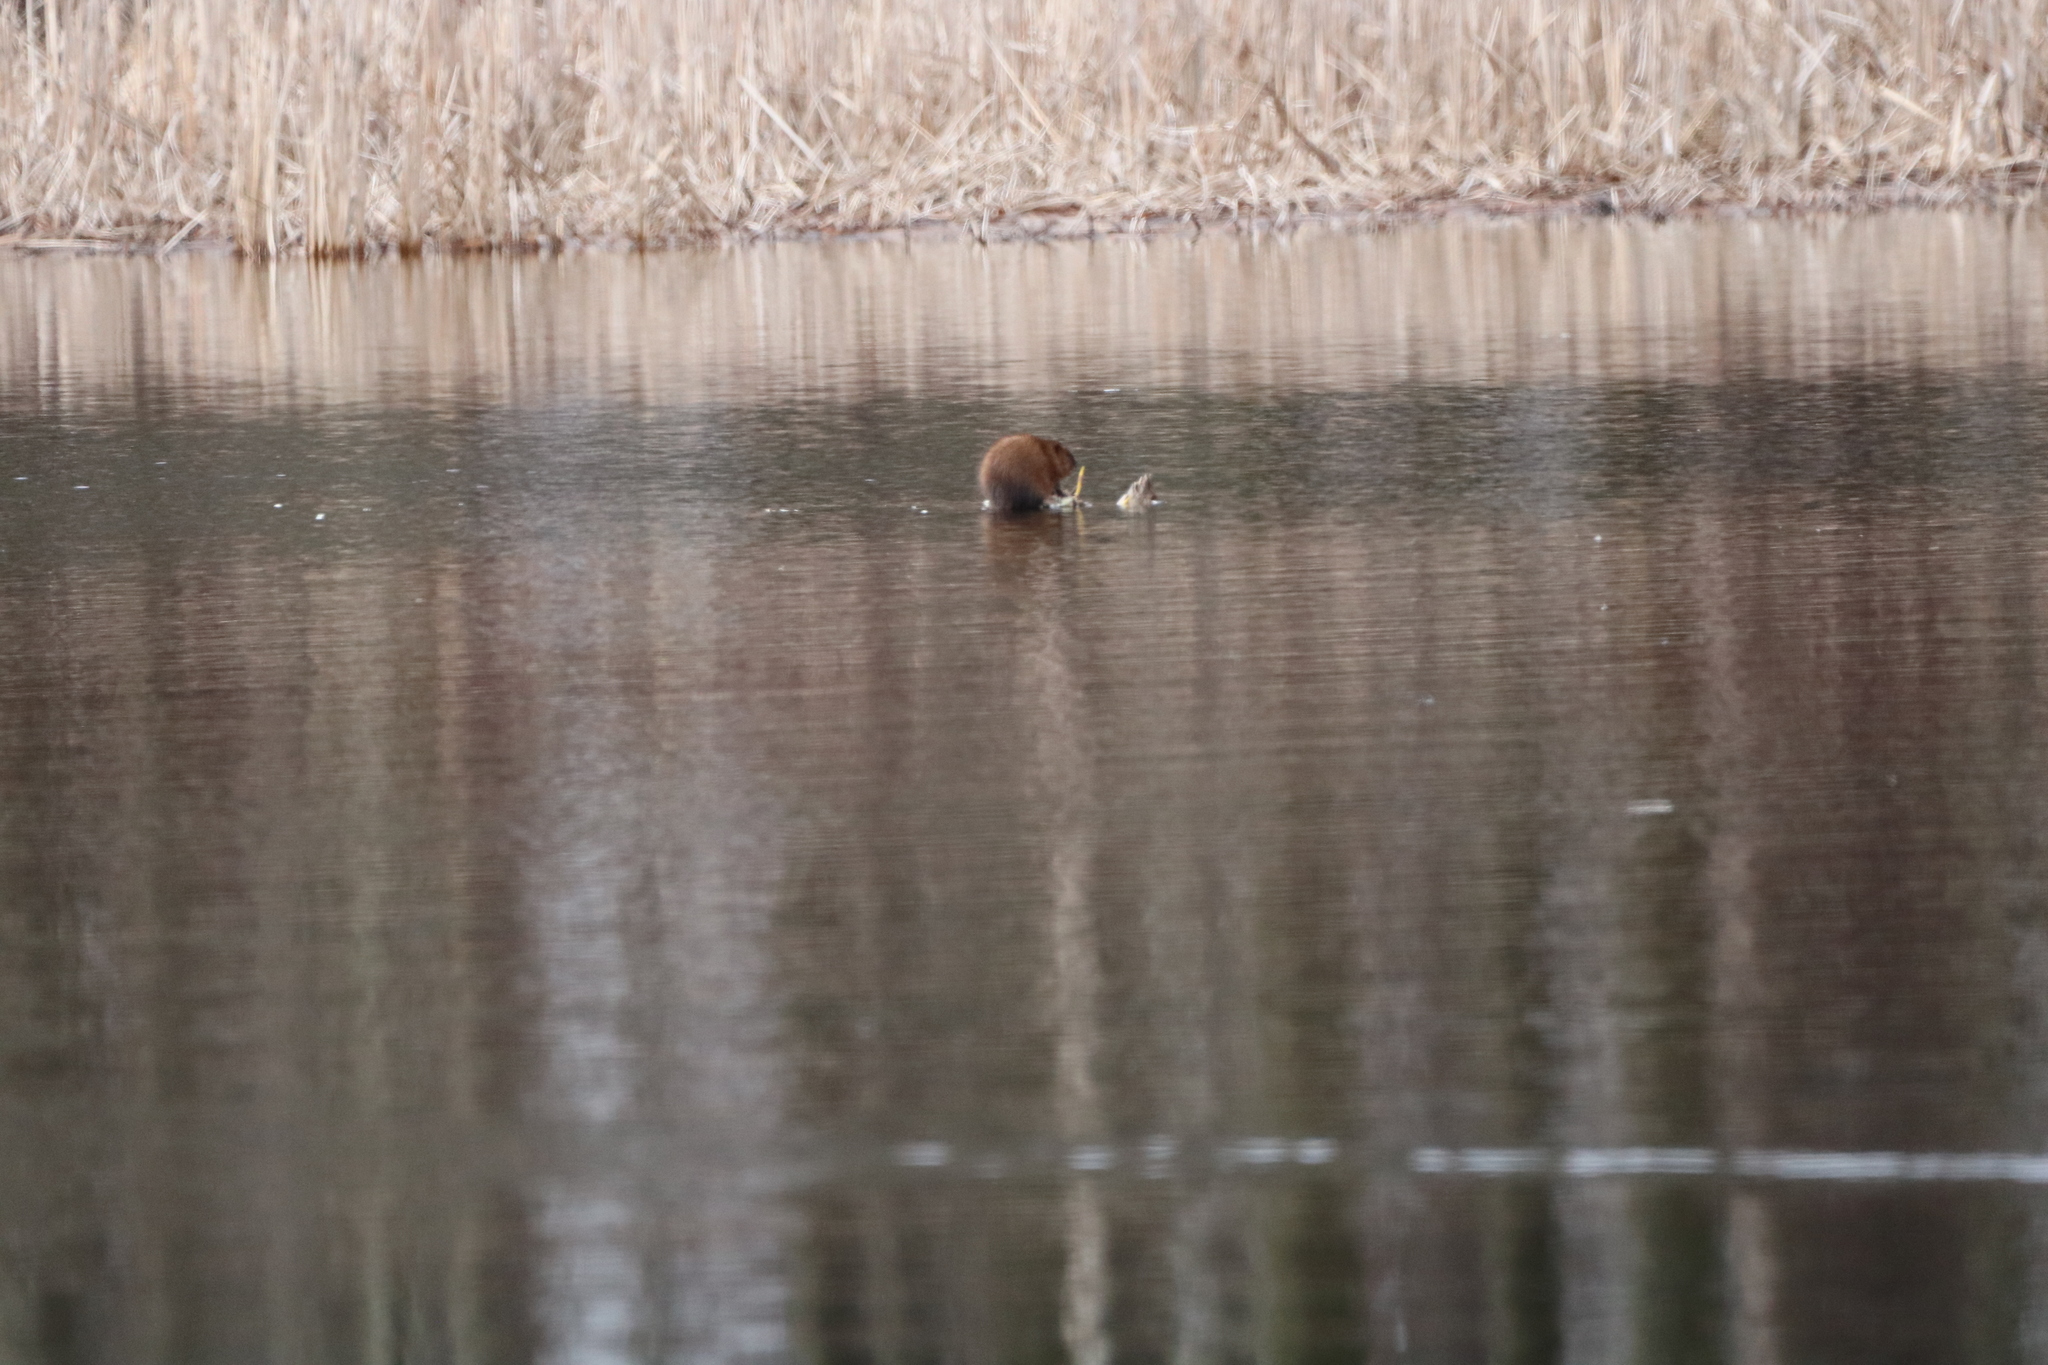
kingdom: Animalia
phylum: Chordata
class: Mammalia
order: Rodentia
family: Cricetidae
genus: Ondatra
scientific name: Ondatra zibethicus
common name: Muskrat
